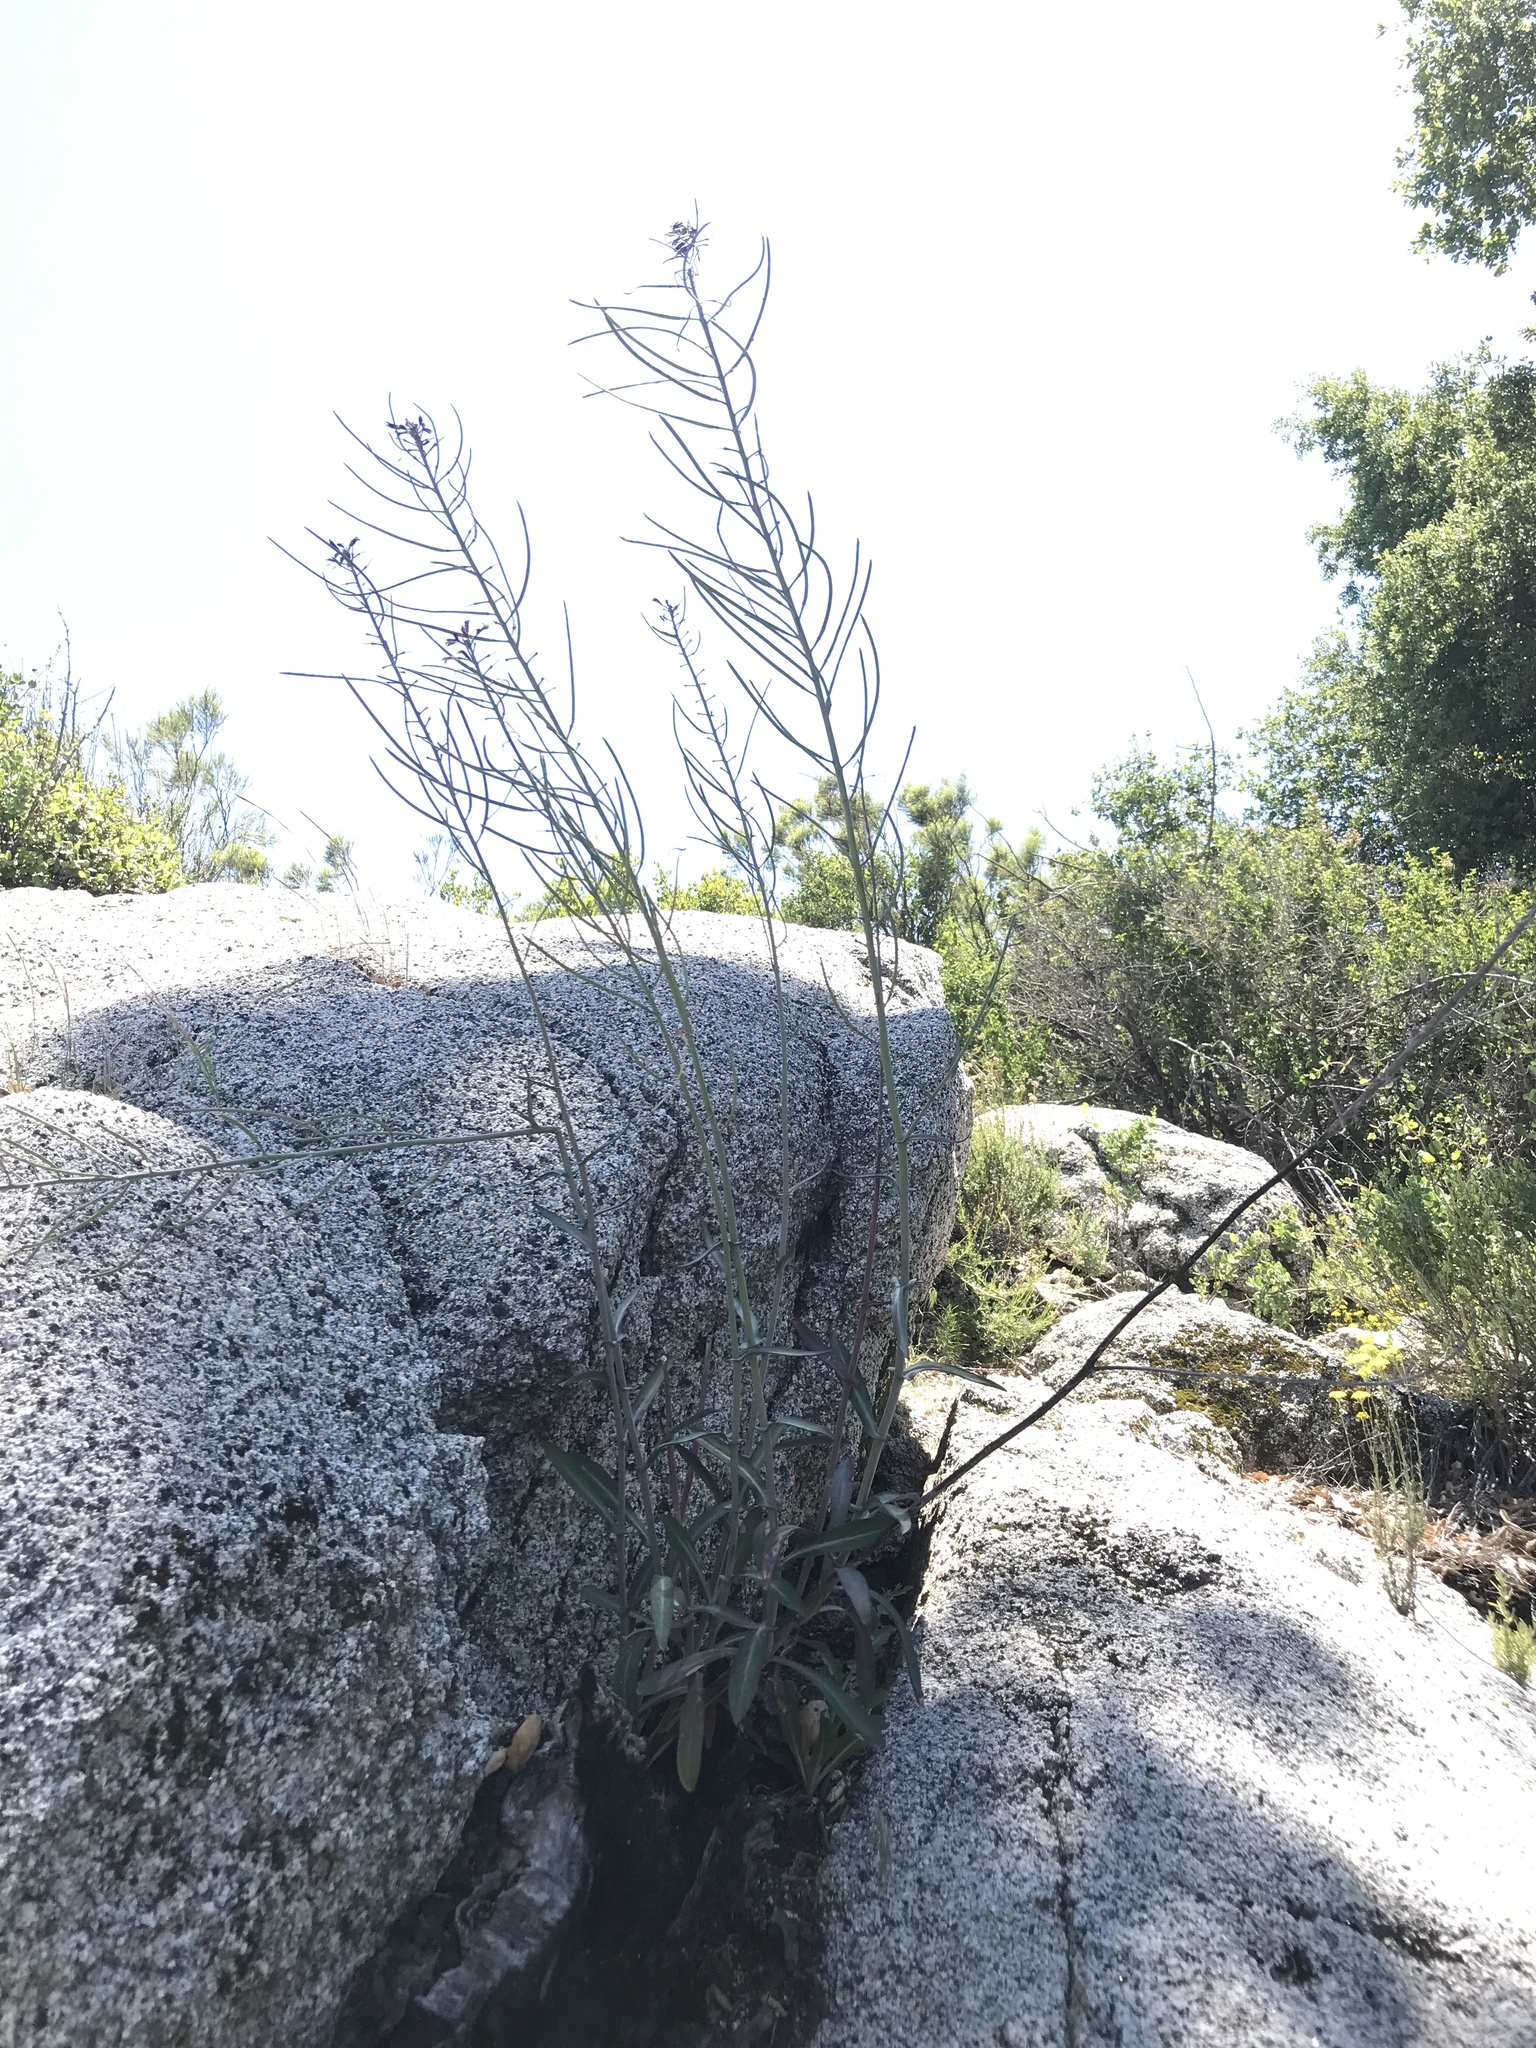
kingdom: Plantae
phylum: Tracheophyta
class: Magnoliopsida
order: Brassicales
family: Brassicaceae
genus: Streptanthus
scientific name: Streptanthus campestris
